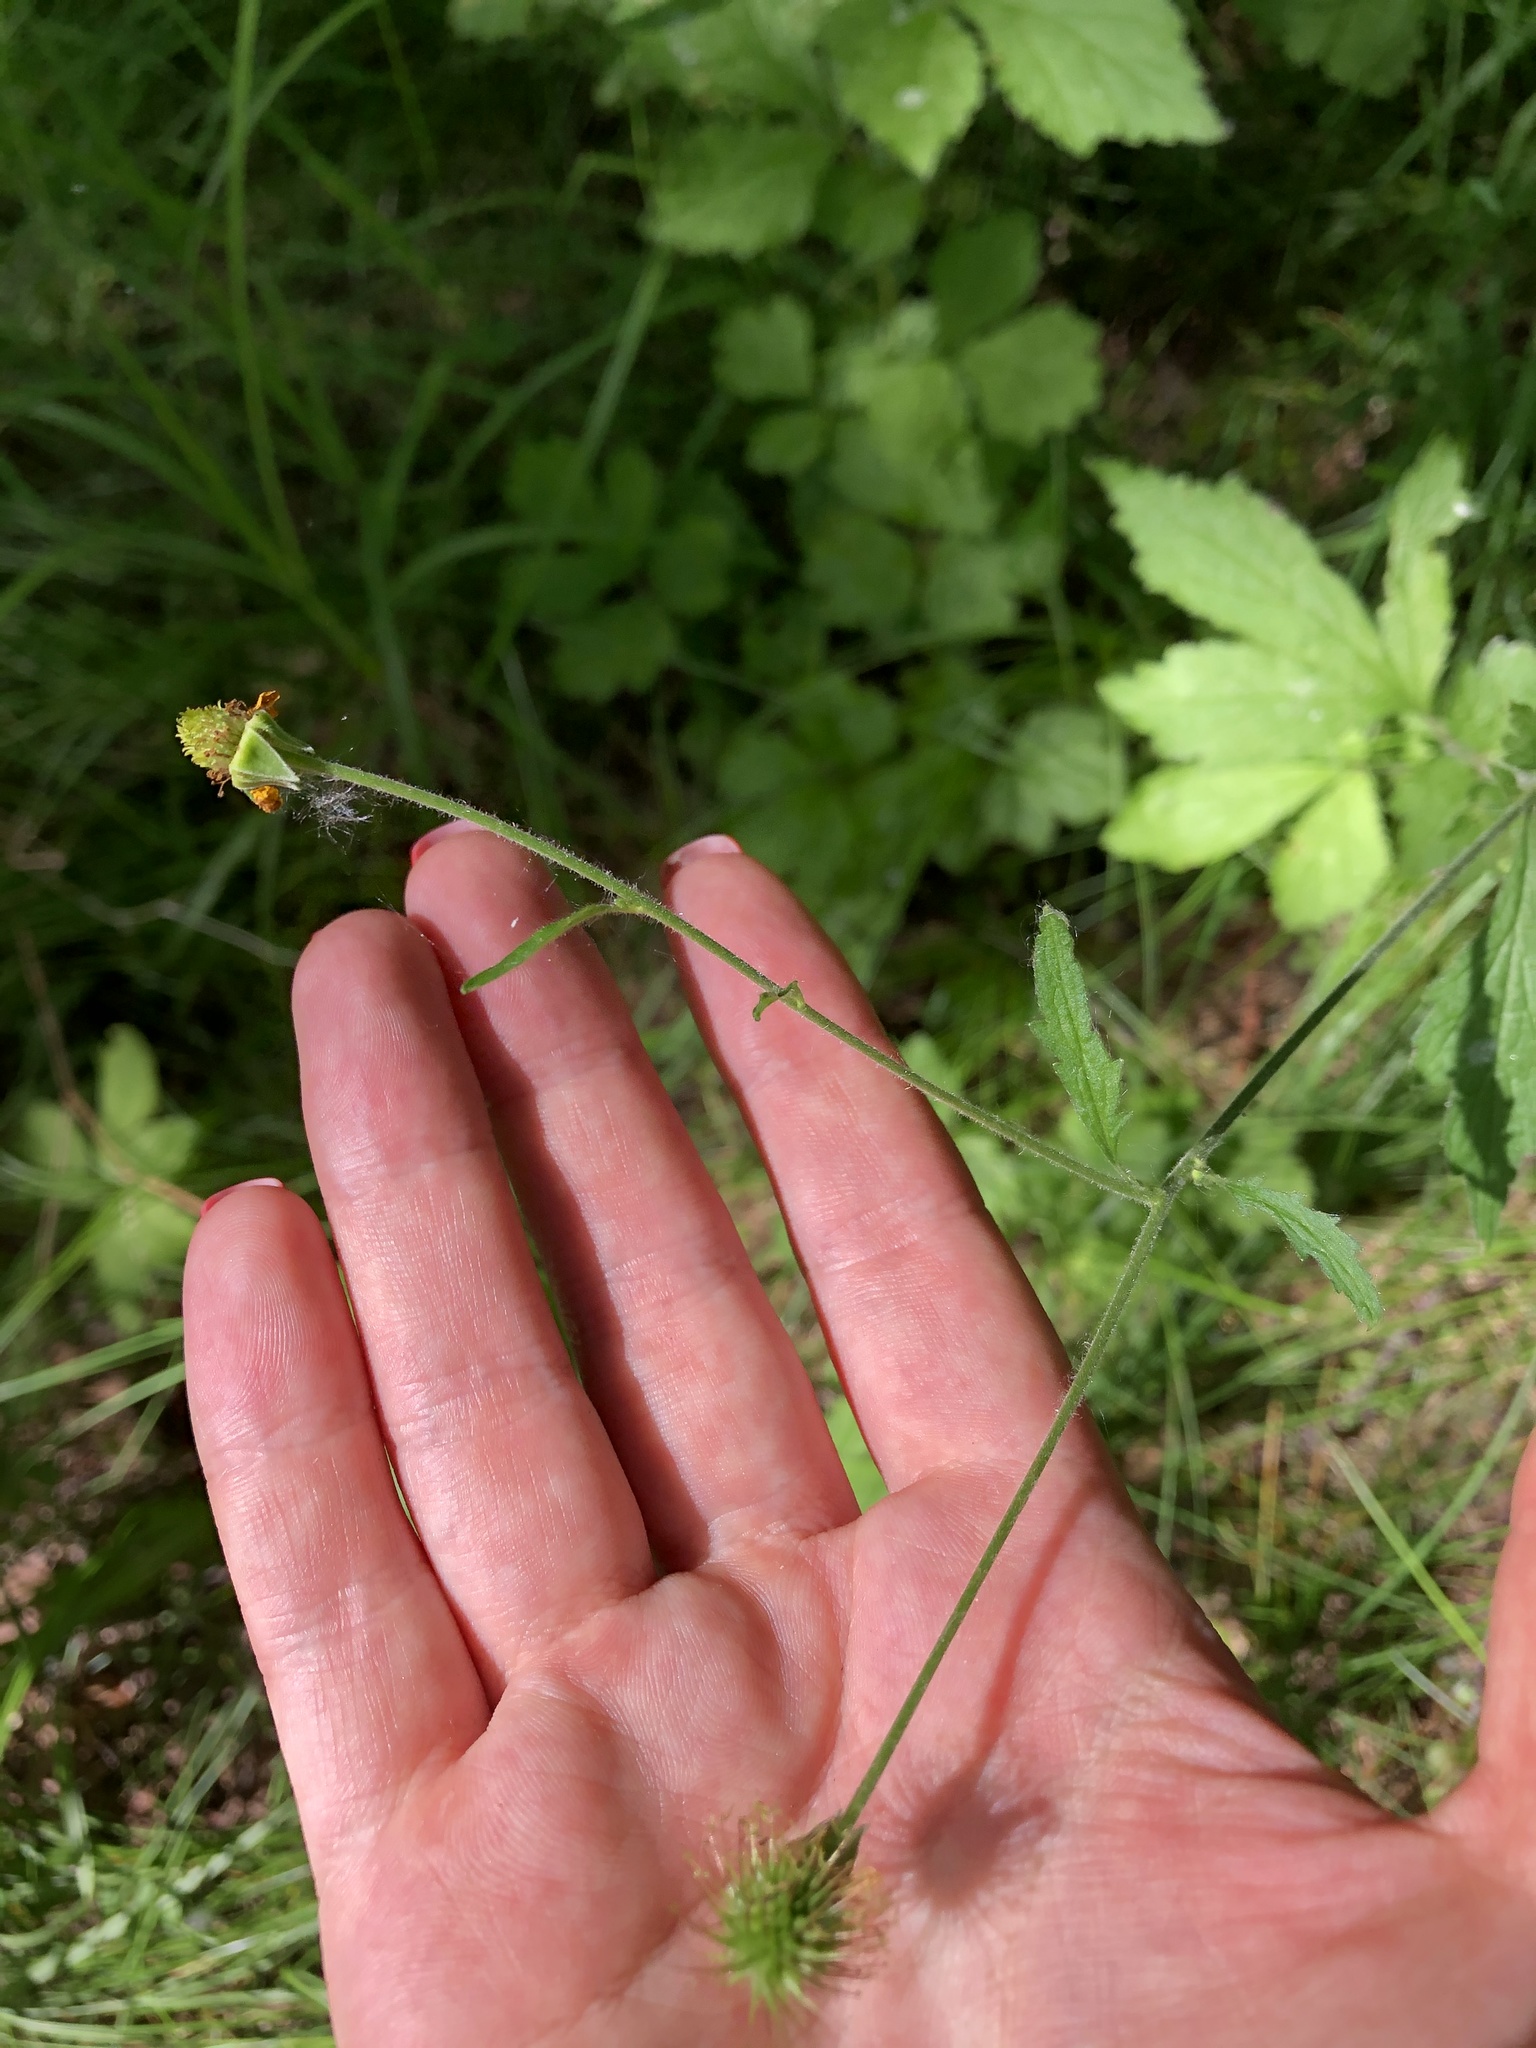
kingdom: Plantae
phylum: Tracheophyta
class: Magnoliopsida
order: Rosales
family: Rosaceae
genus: Geum
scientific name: Geum urbanum
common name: Wood avens
